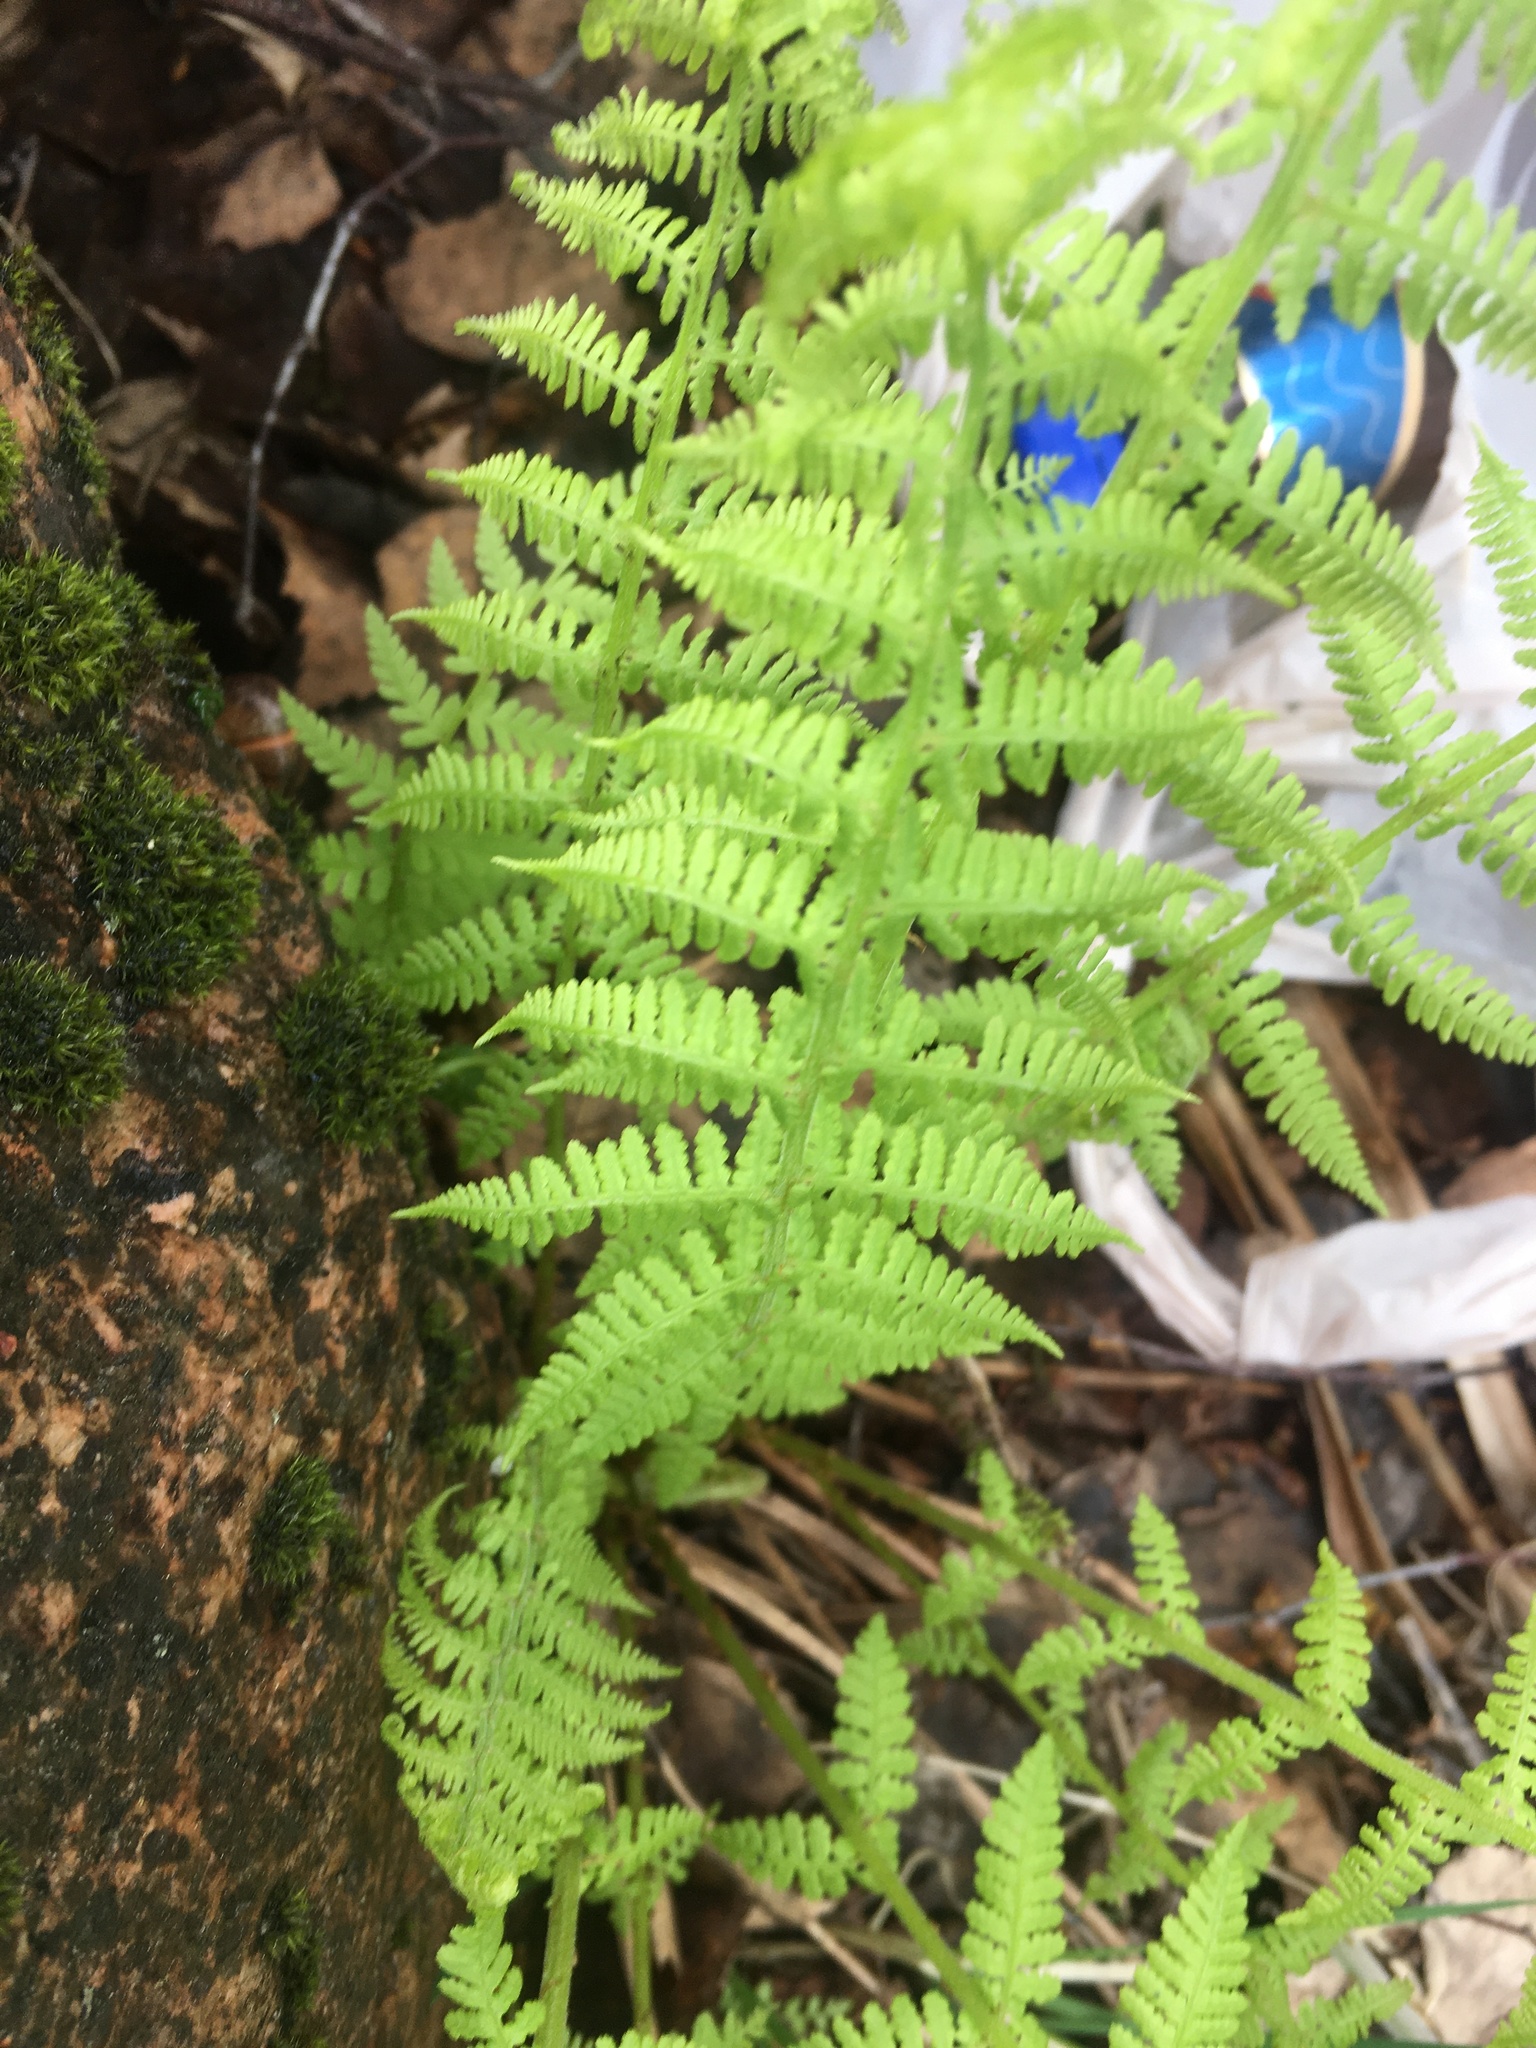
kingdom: Plantae
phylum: Tracheophyta
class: Polypodiopsida
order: Polypodiales
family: Athyriaceae
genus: Athyrium
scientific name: Athyrium filix-femina
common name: Lady fern
